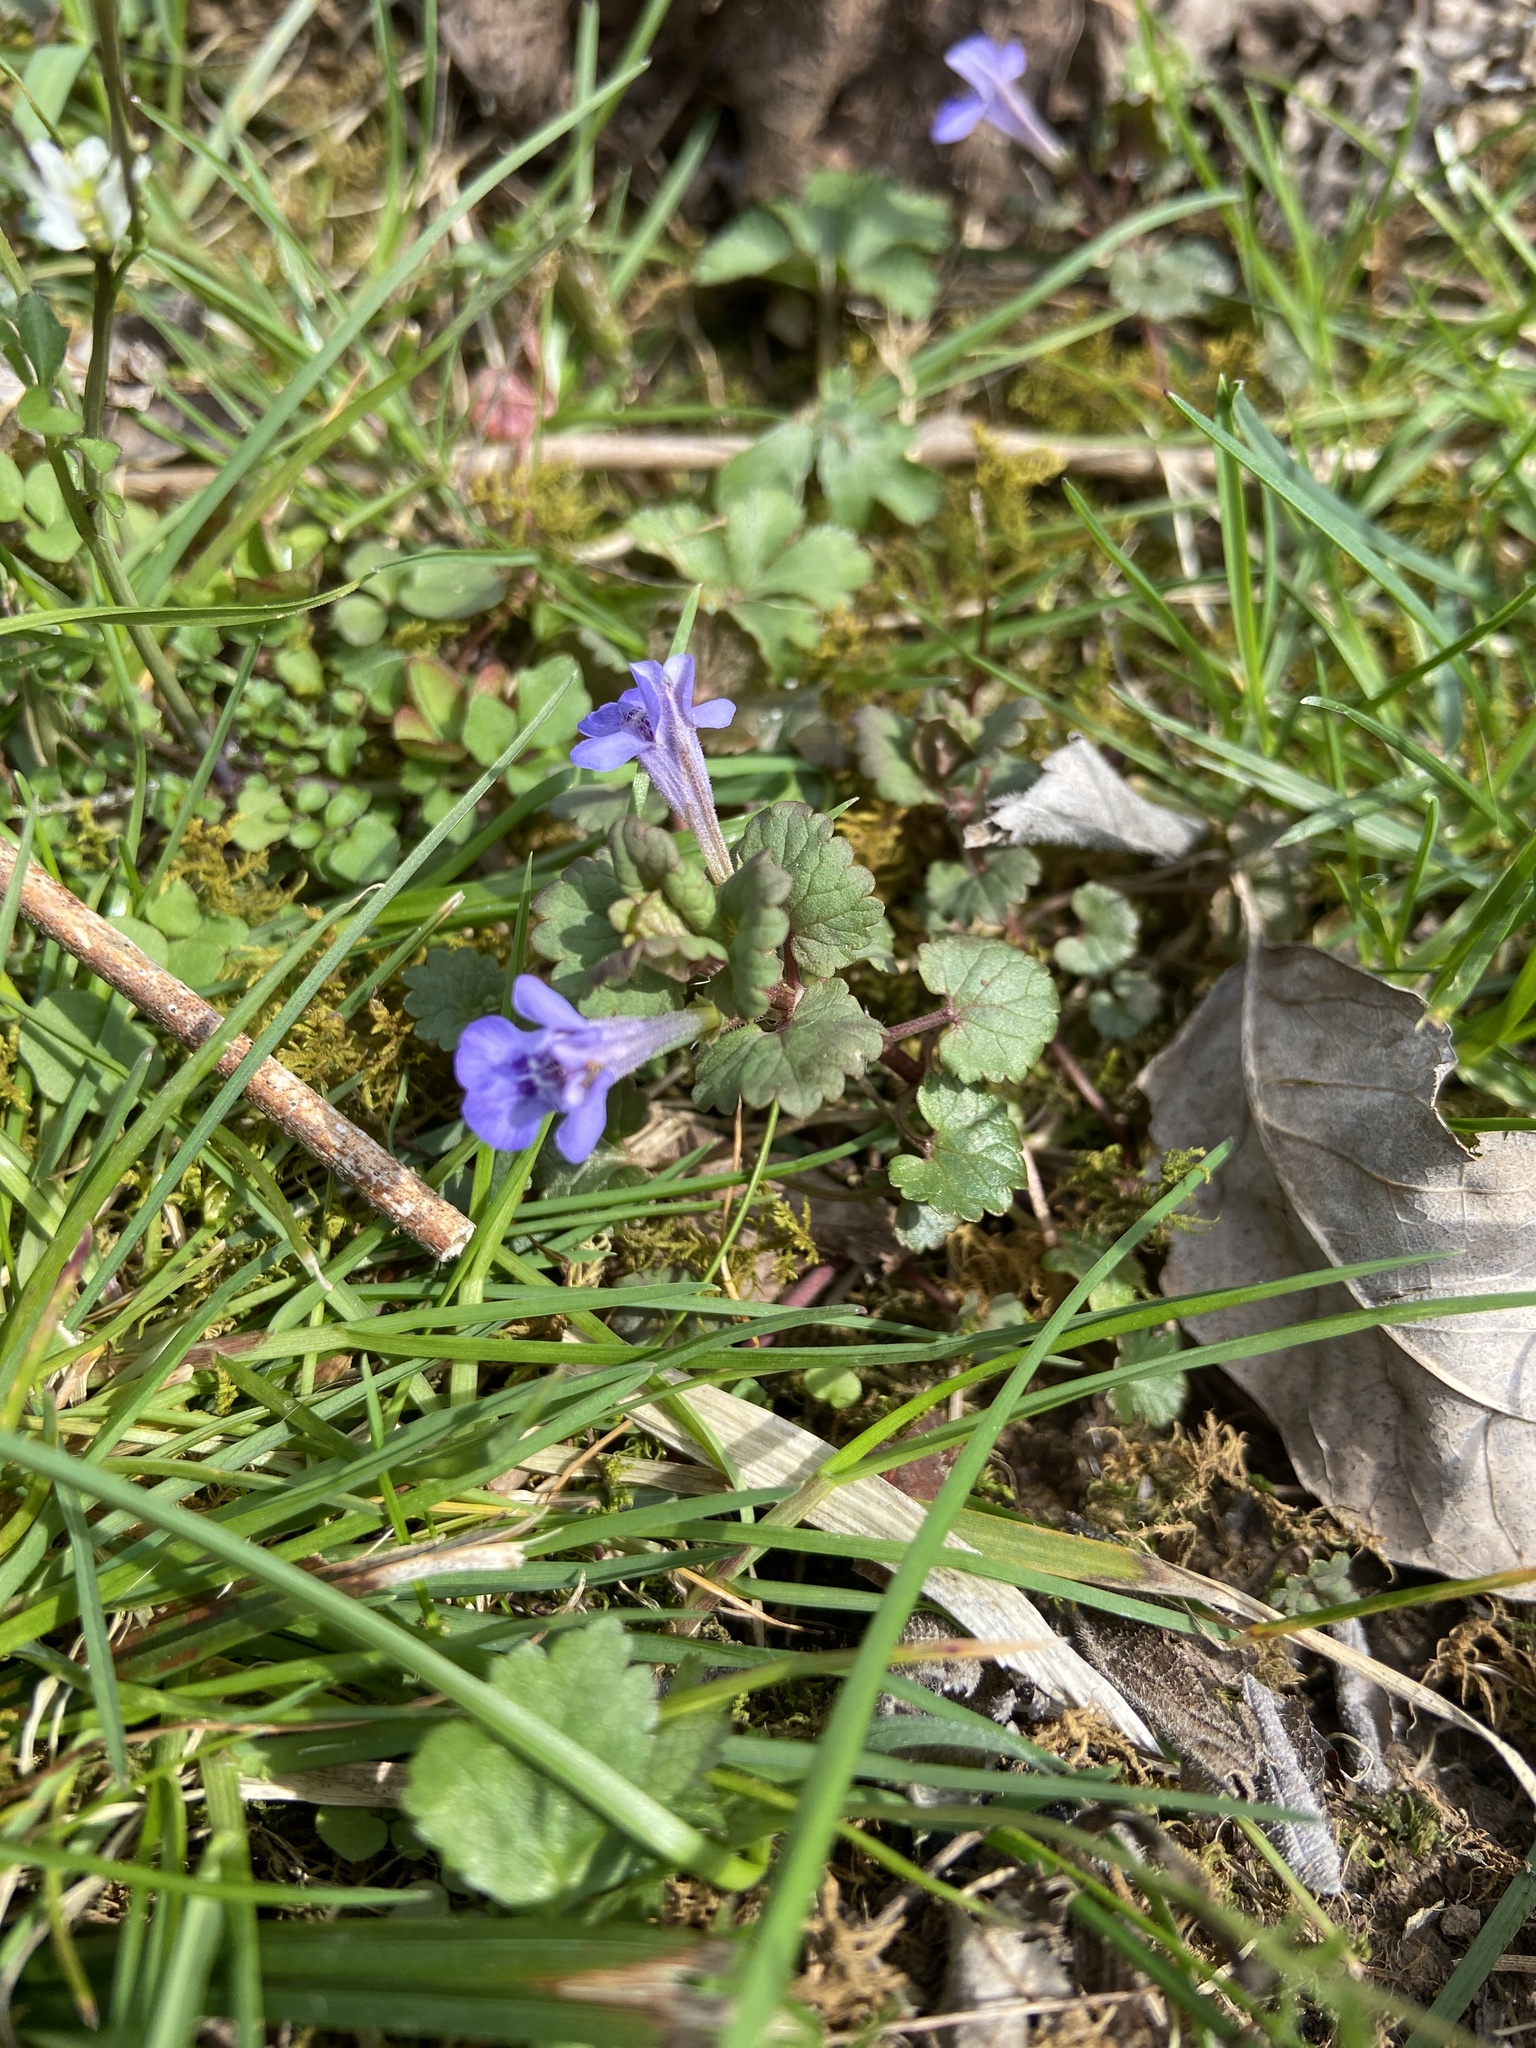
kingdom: Plantae
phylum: Tracheophyta
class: Magnoliopsida
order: Lamiales
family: Lamiaceae
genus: Glechoma
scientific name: Glechoma hederacea
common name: Ground ivy
